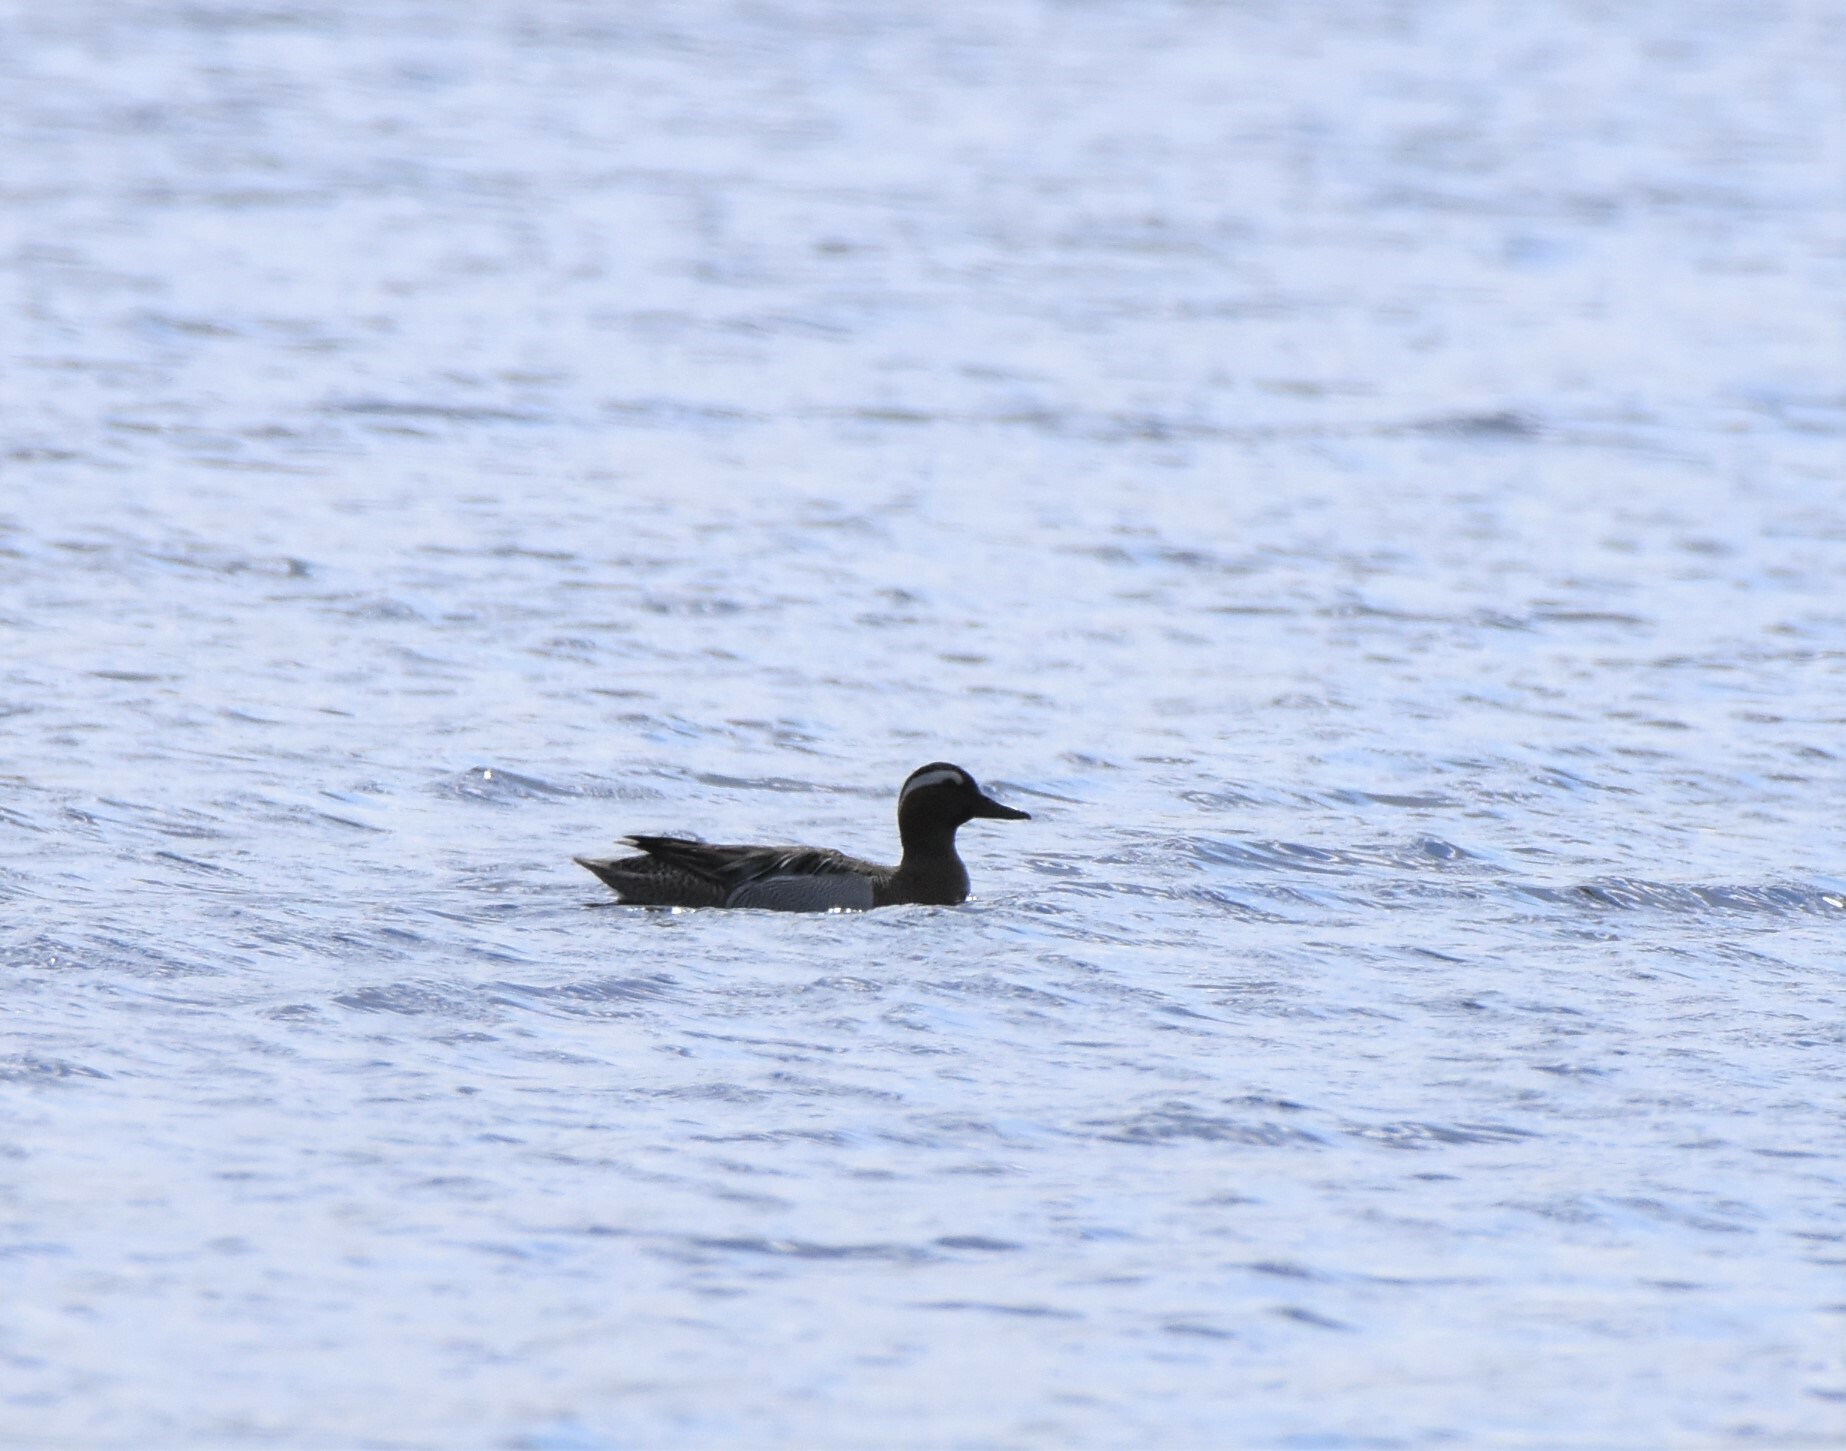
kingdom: Animalia
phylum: Chordata
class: Aves
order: Anseriformes
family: Anatidae
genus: Spatula
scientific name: Spatula querquedula
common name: Garganey
